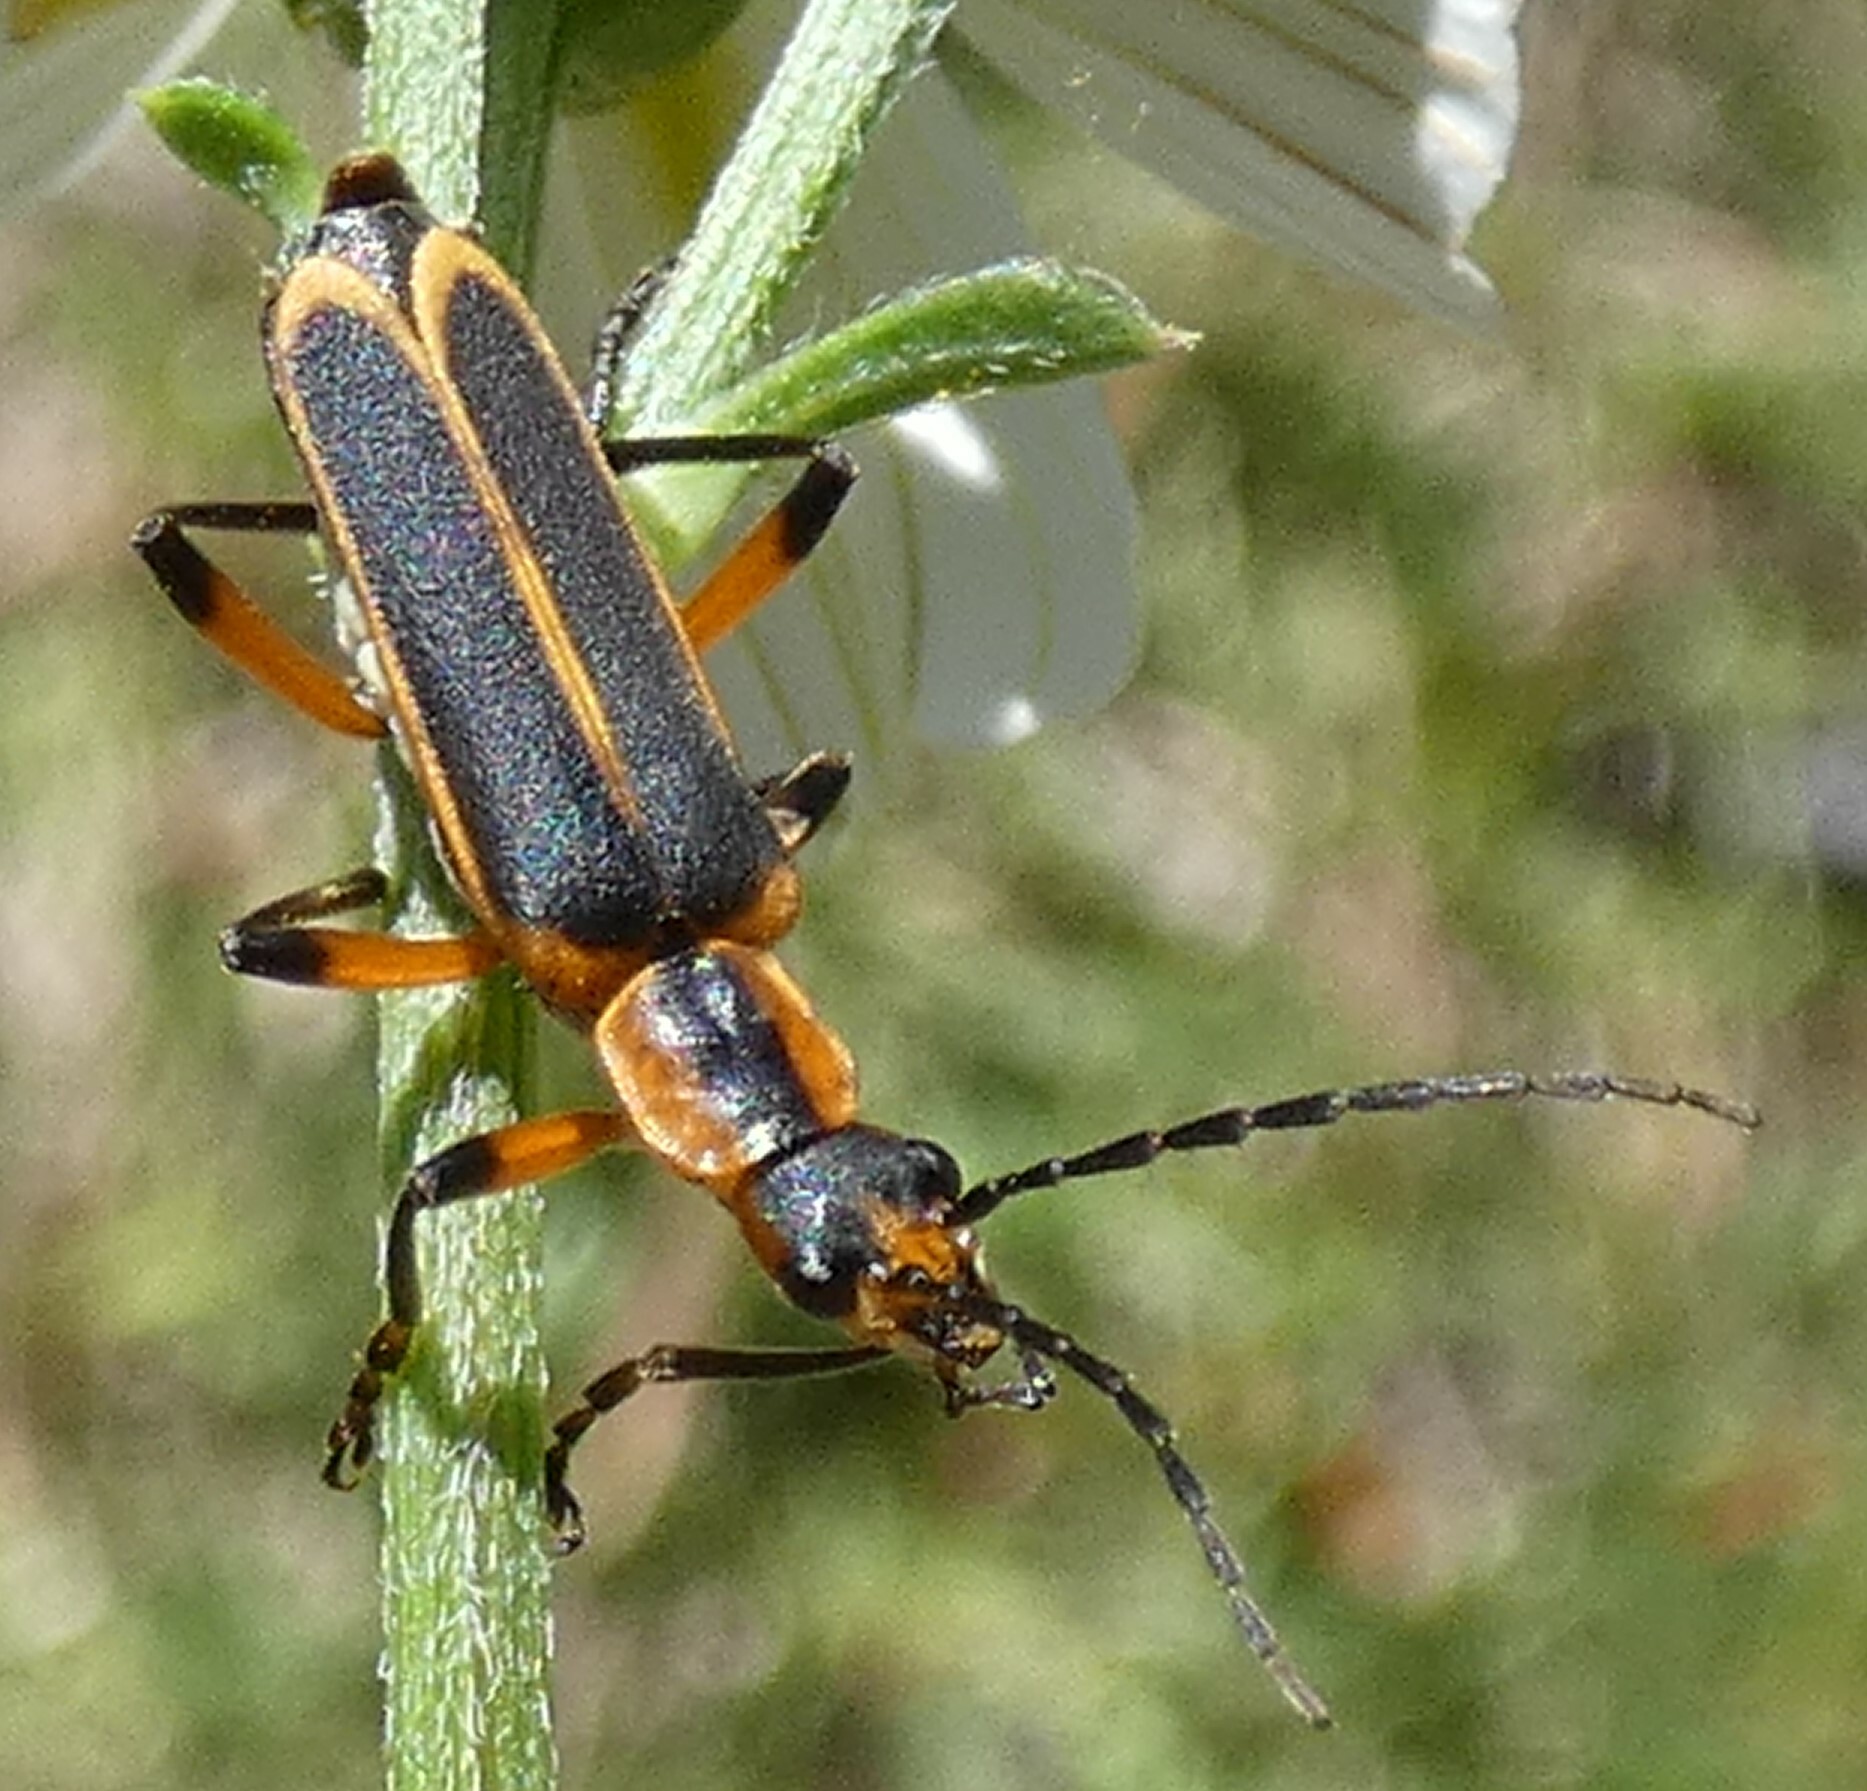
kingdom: Animalia
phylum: Arthropoda
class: Insecta
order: Coleoptera
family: Cantharidae
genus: Chauliognathus
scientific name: Chauliognathus marginatus
